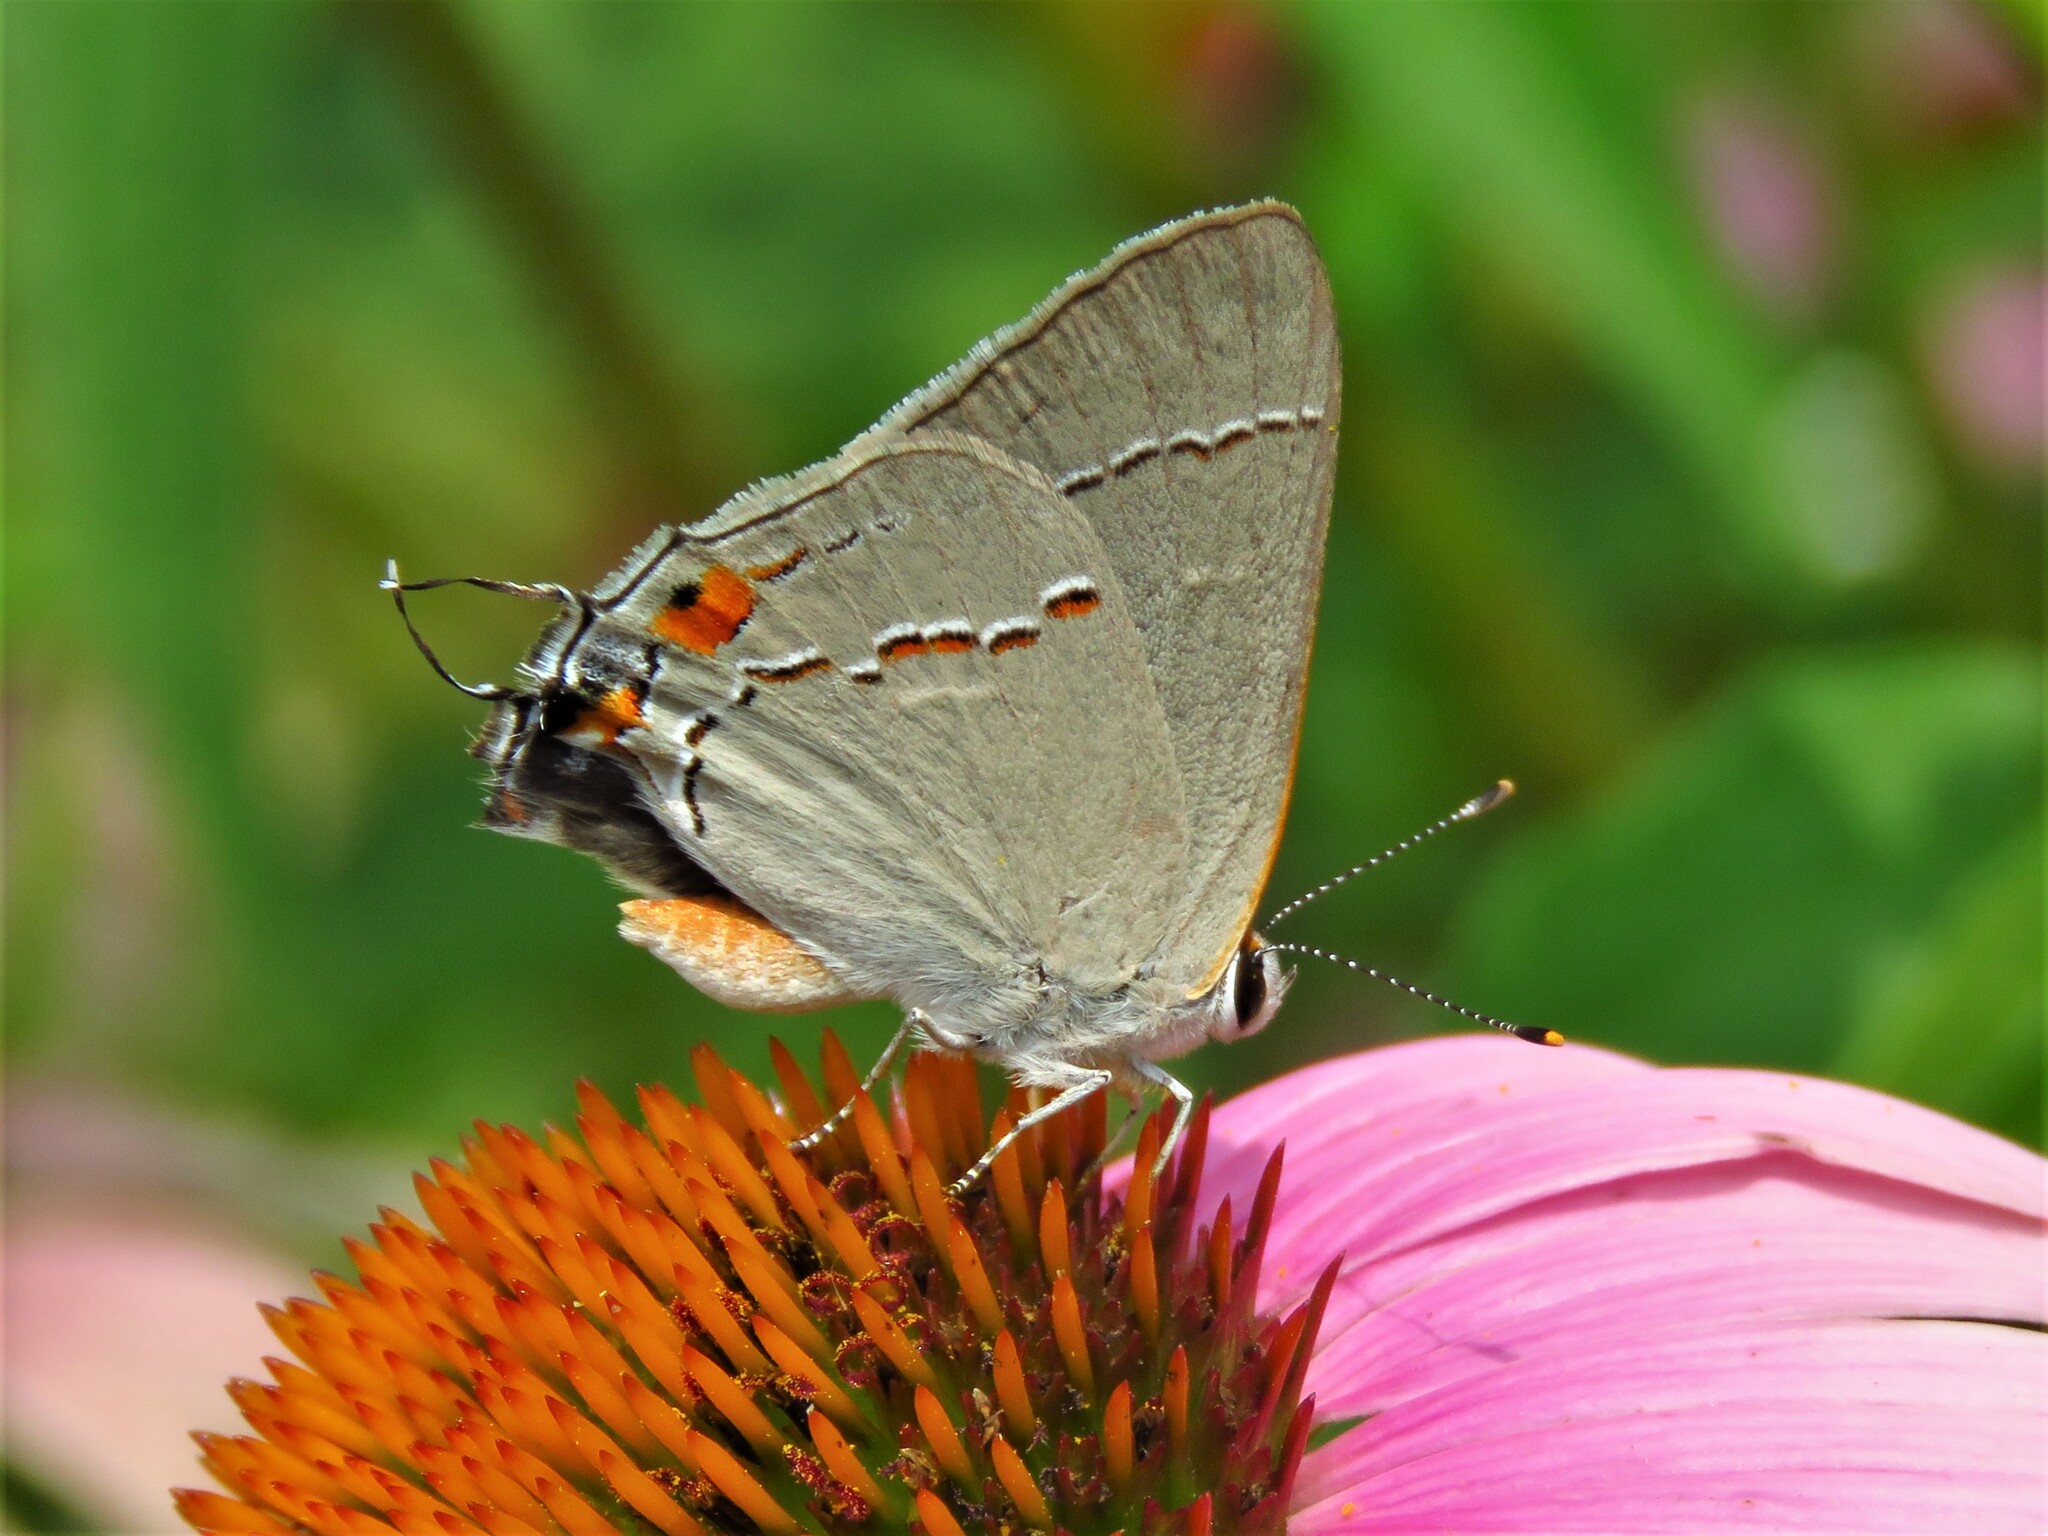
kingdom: Animalia
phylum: Arthropoda
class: Insecta
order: Lepidoptera
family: Lycaenidae
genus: Strymon
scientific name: Strymon melinus
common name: Gray hairstreak
